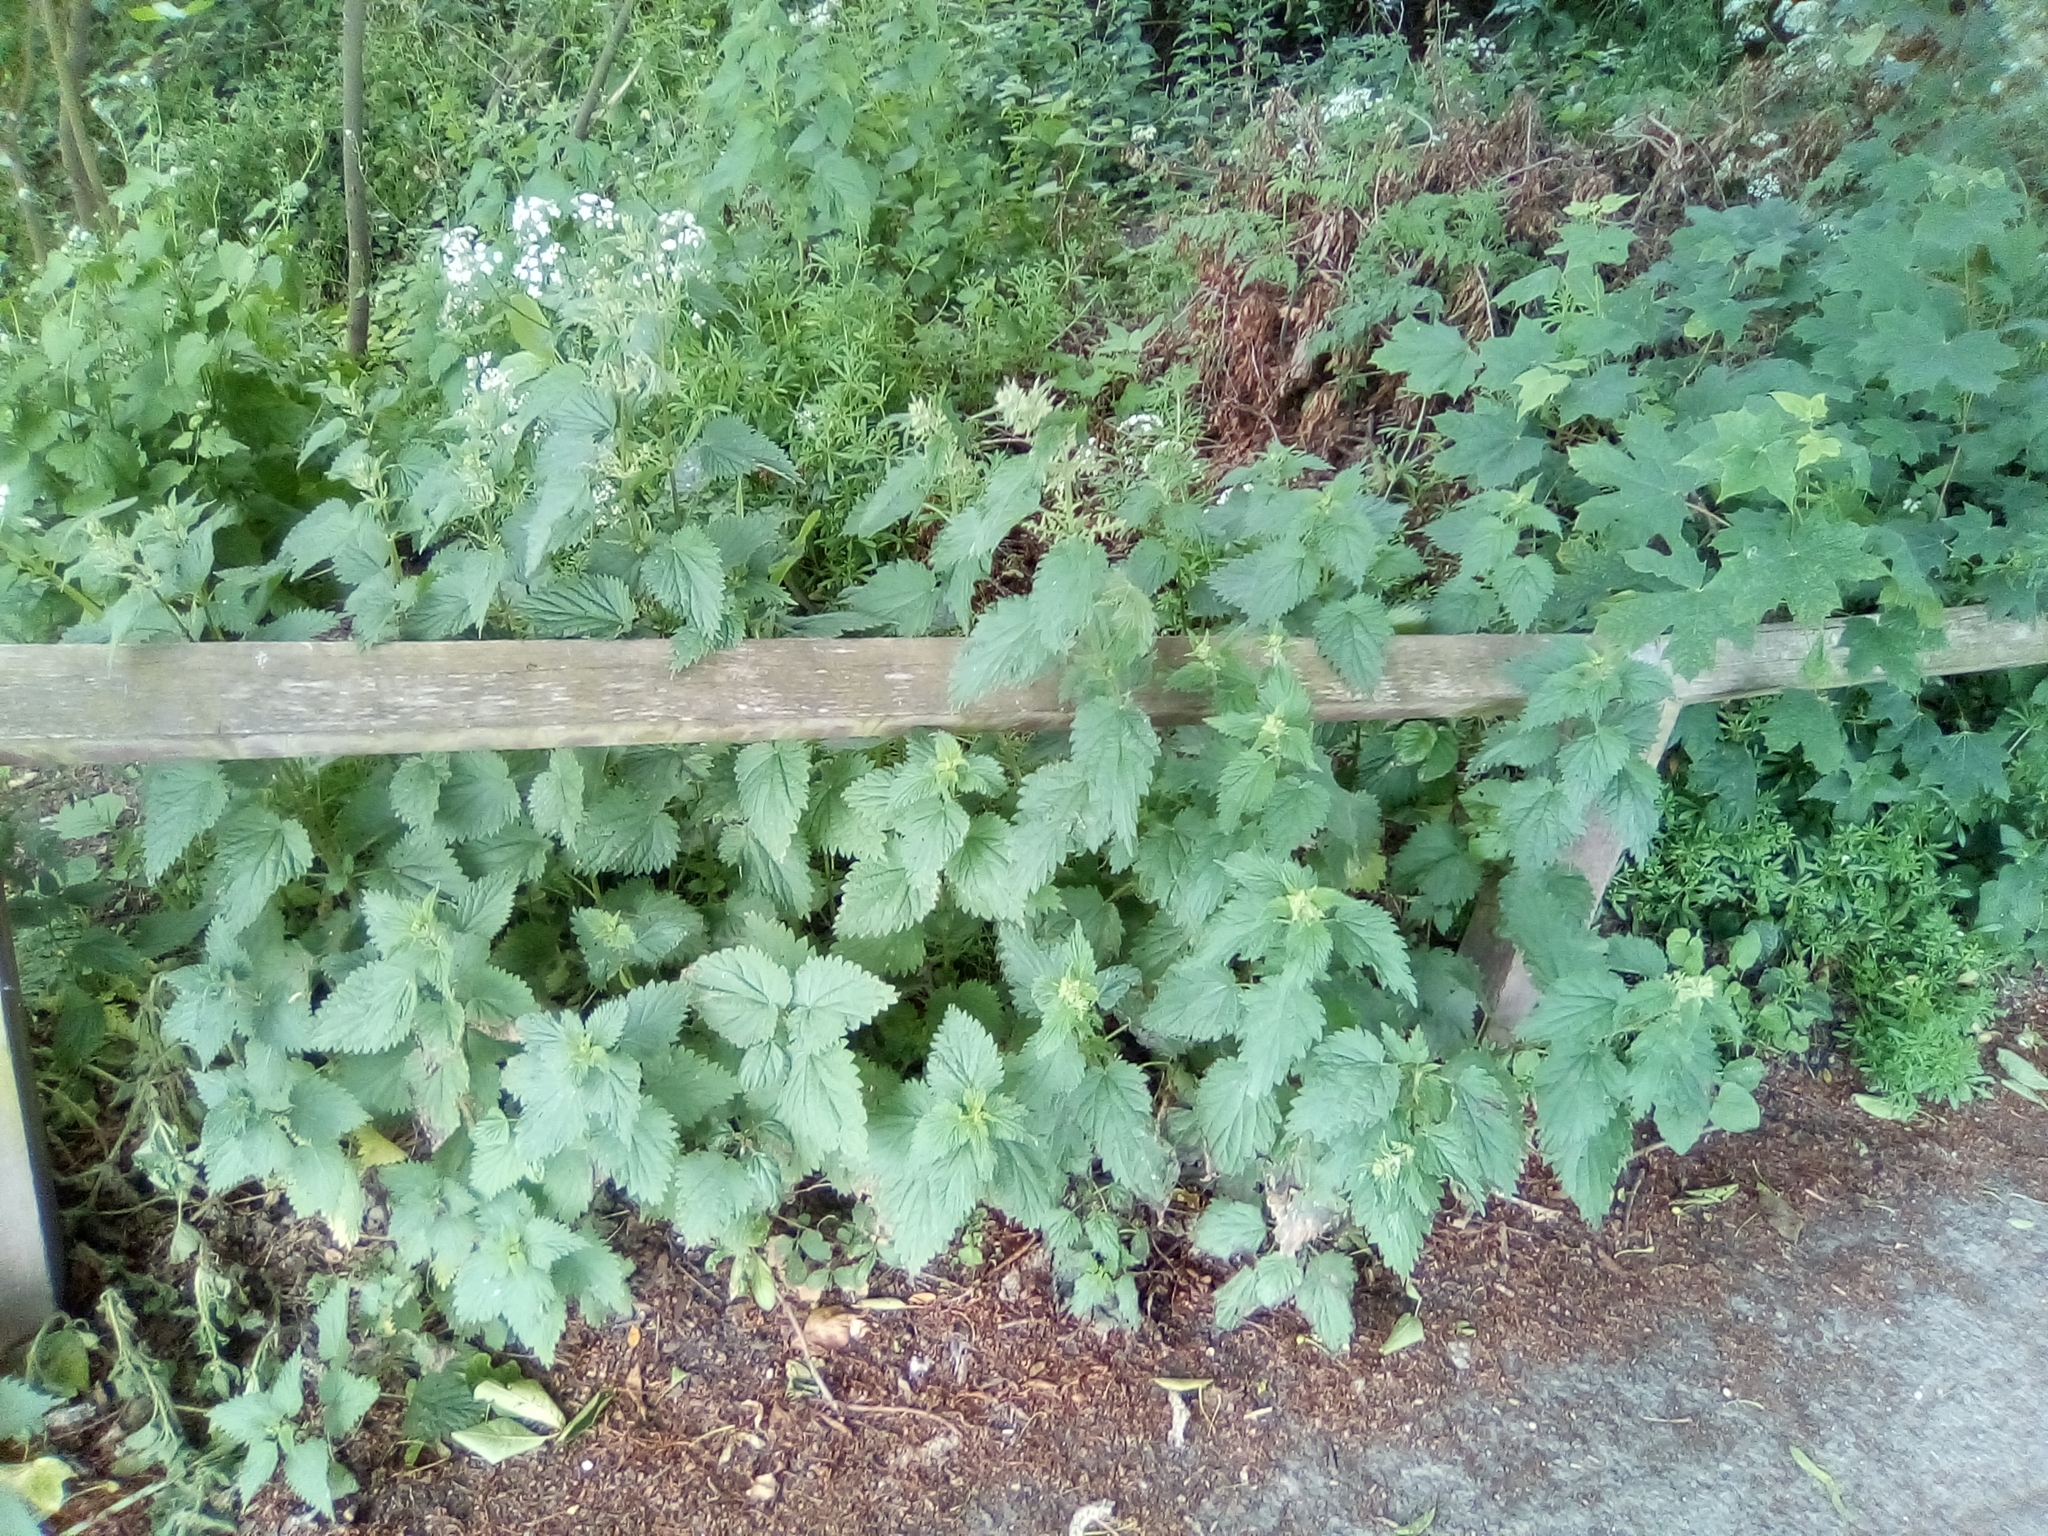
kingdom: Plantae
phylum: Tracheophyta
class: Magnoliopsida
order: Rosales
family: Urticaceae
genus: Urtica
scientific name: Urtica dioica
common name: Common nettle
